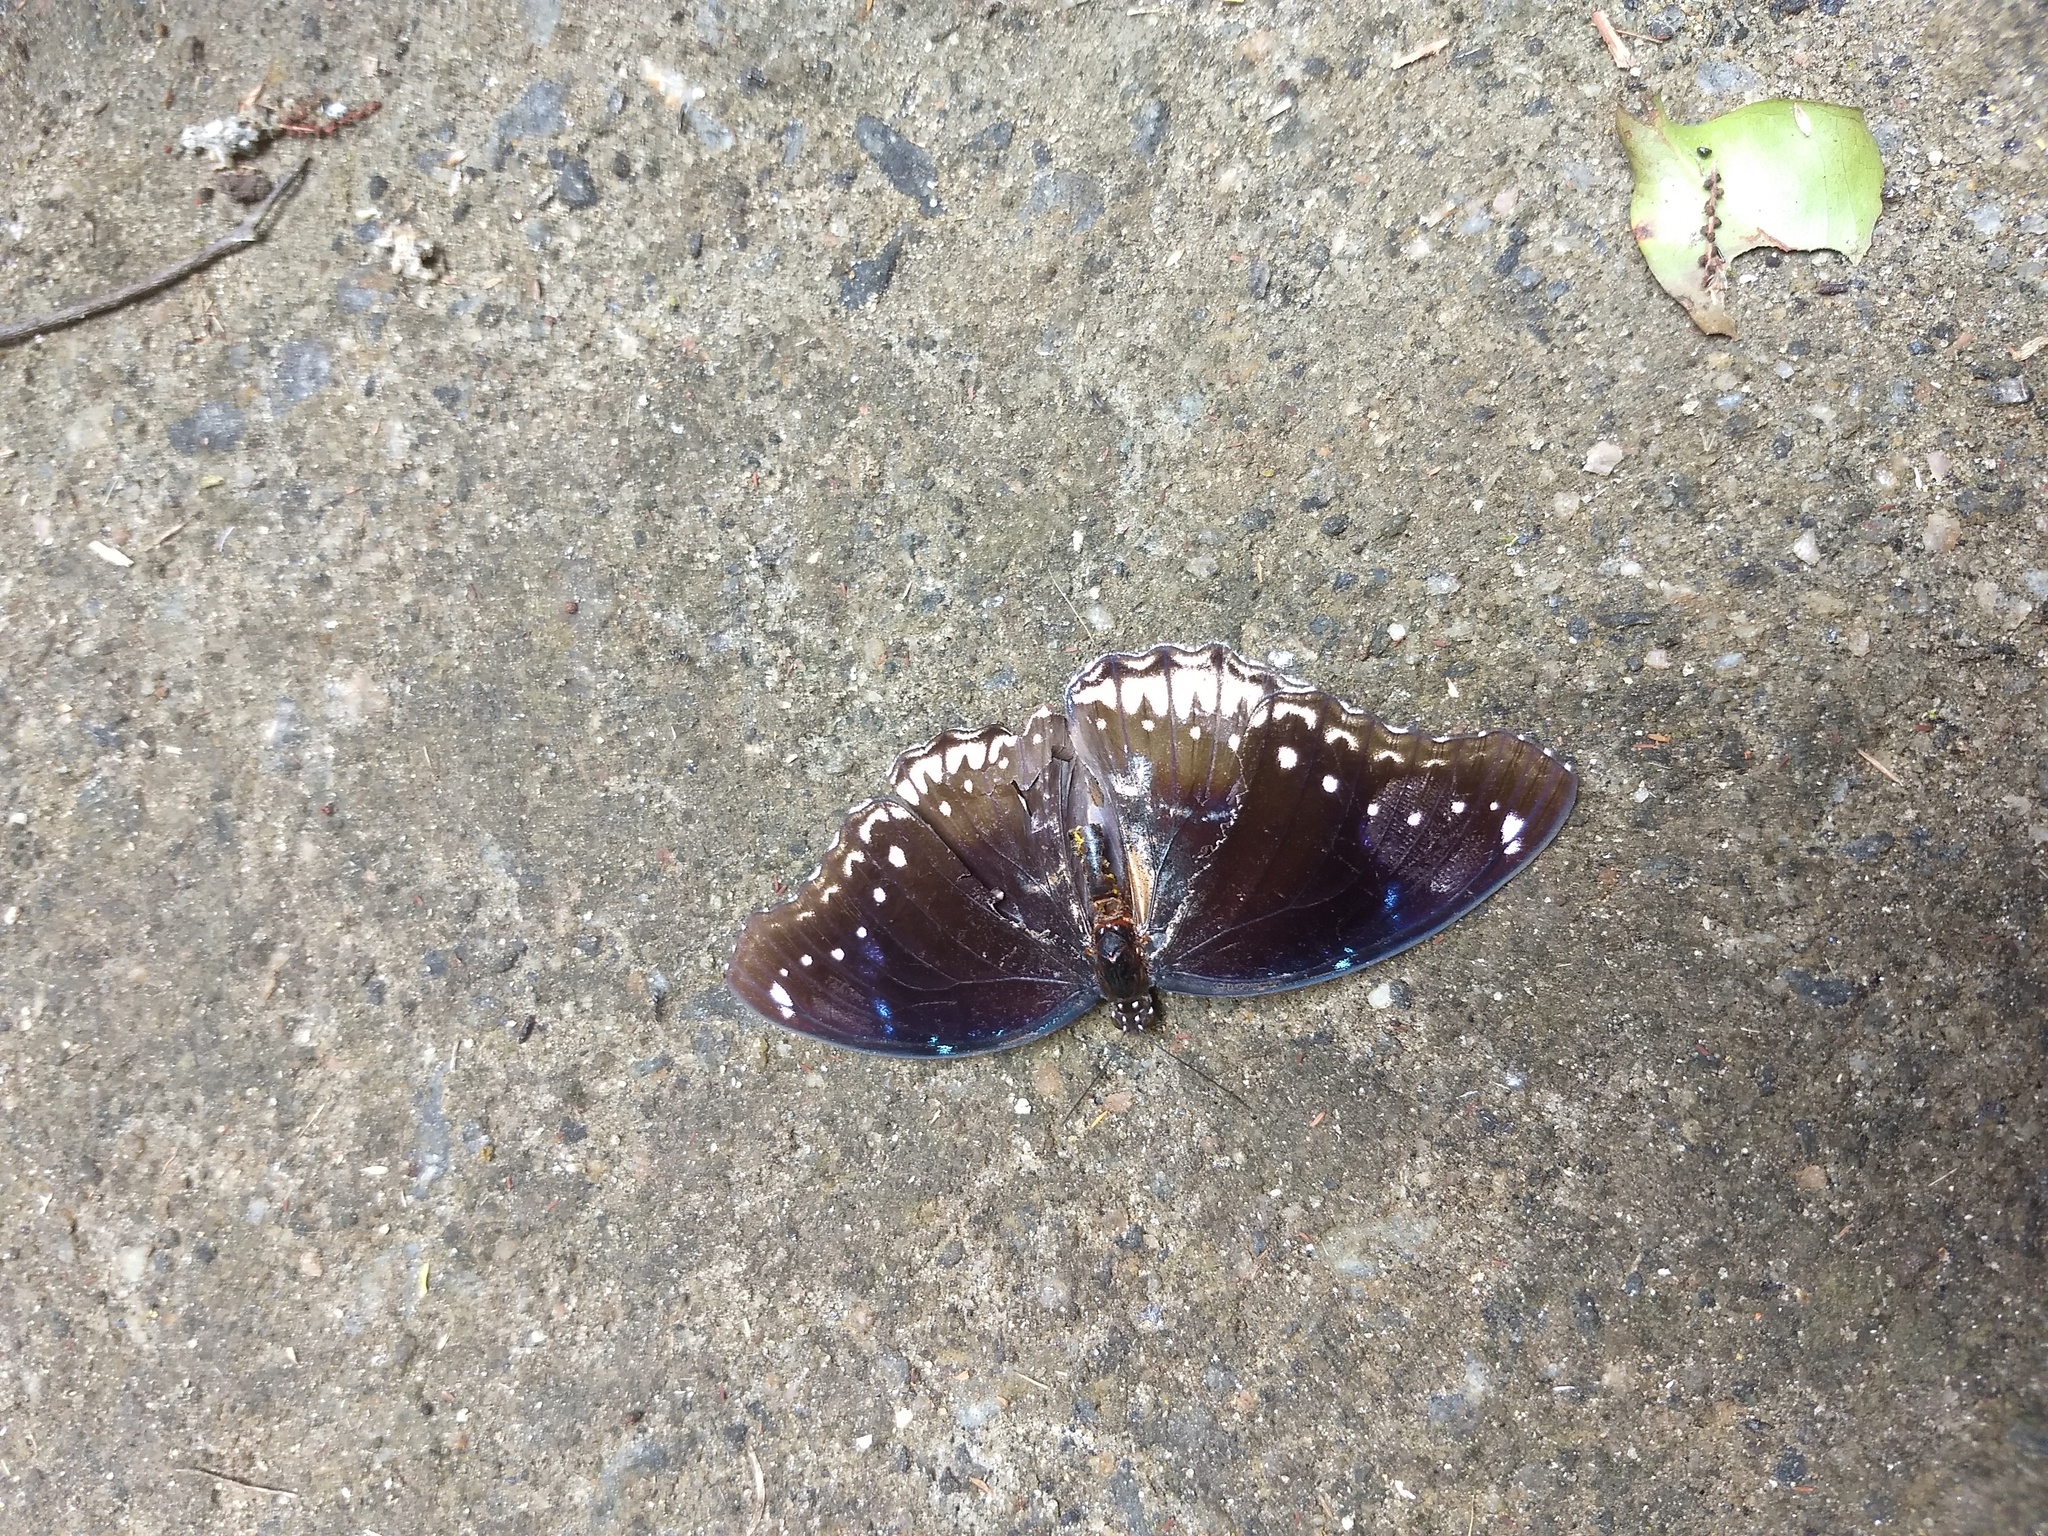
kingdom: Animalia
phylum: Arthropoda
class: Insecta
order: Lepidoptera
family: Nymphalidae
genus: Hypolimnas
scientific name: Hypolimnas bolina
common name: Great eggfly
